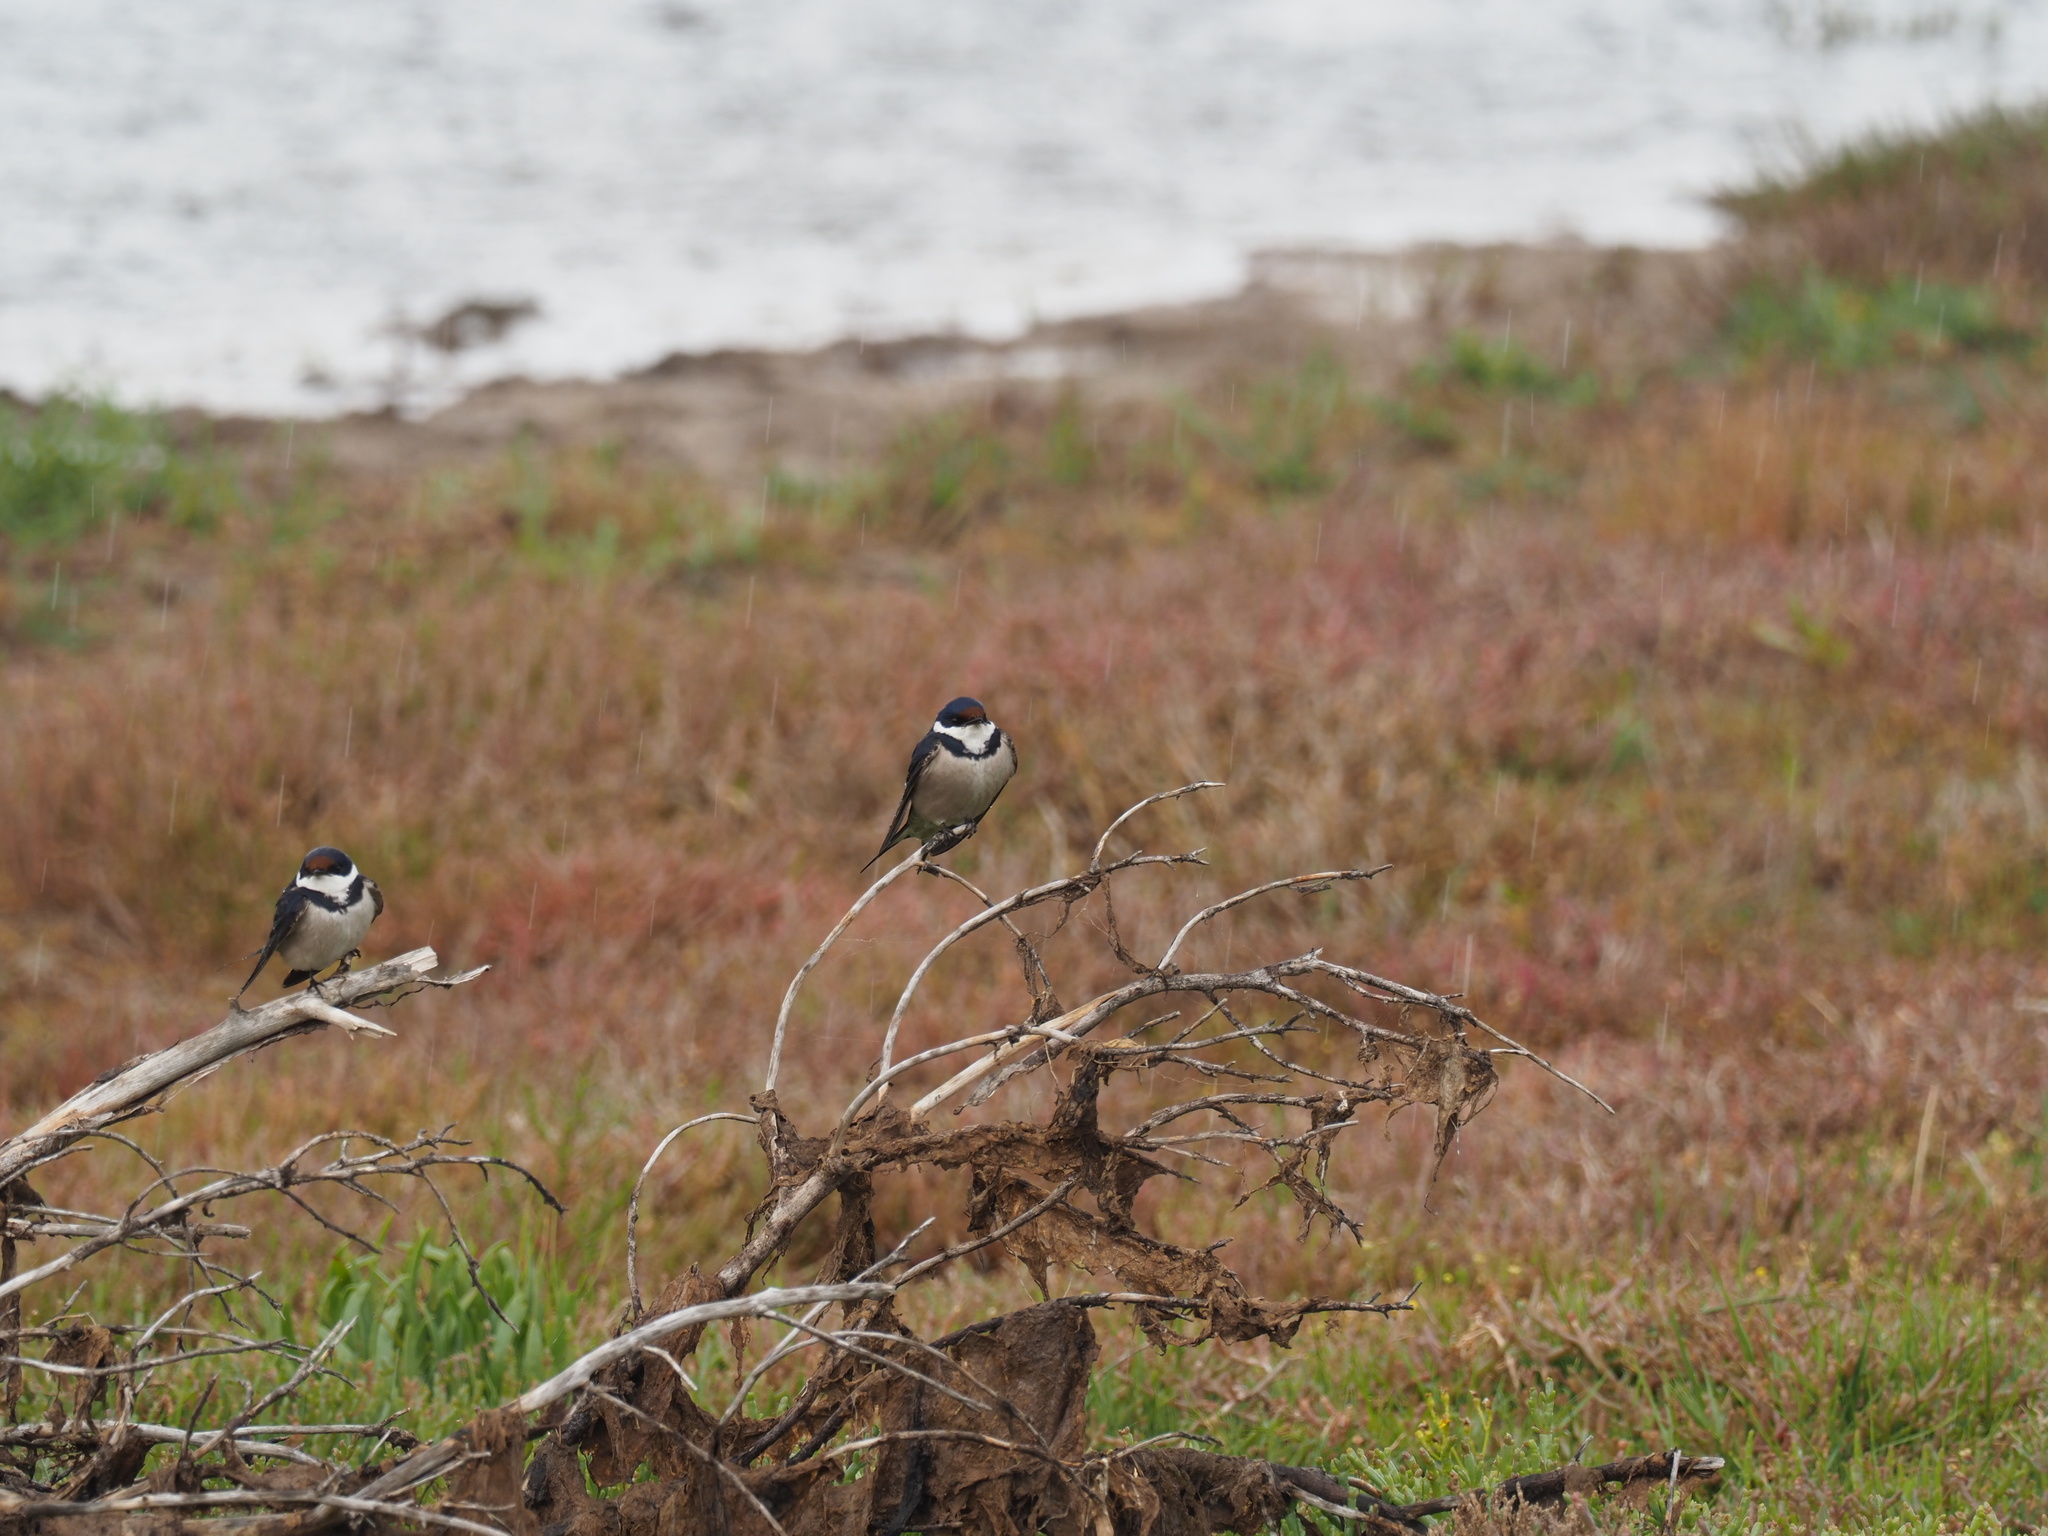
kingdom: Animalia
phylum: Chordata
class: Aves
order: Passeriformes
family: Hirundinidae
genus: Hirundo
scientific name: Hirundo albigularis
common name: White-throated swallow
